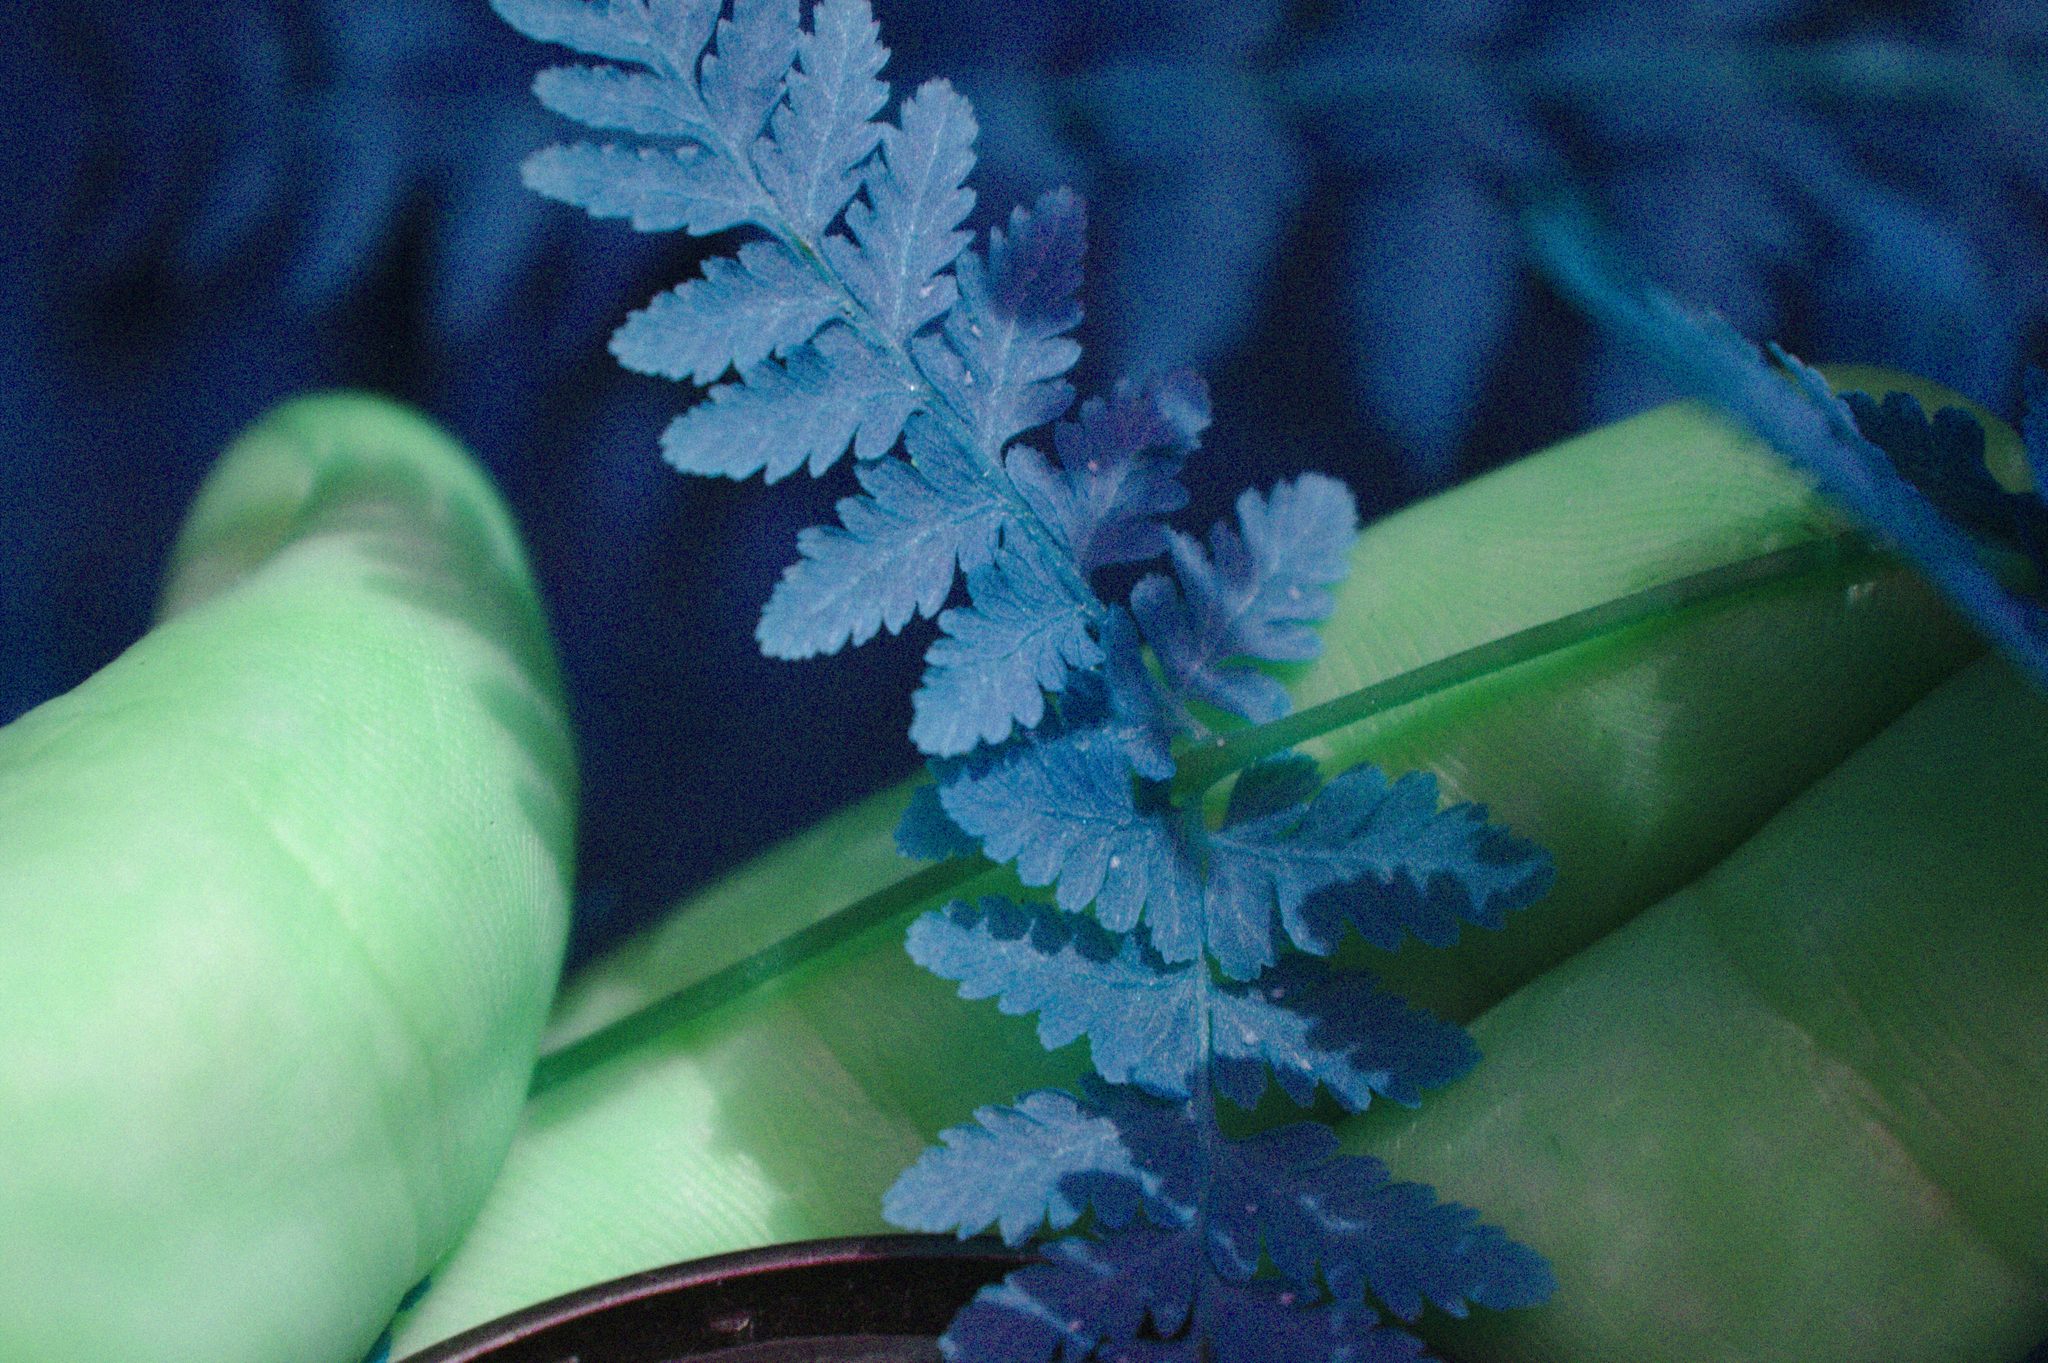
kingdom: Plantae
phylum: Tracheophyta
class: Polypodiopsida
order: Polypodiales
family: Cystopteridaceae
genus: Cystopteris
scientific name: Cystopteris bulbifera
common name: Bulblet bladder fern
